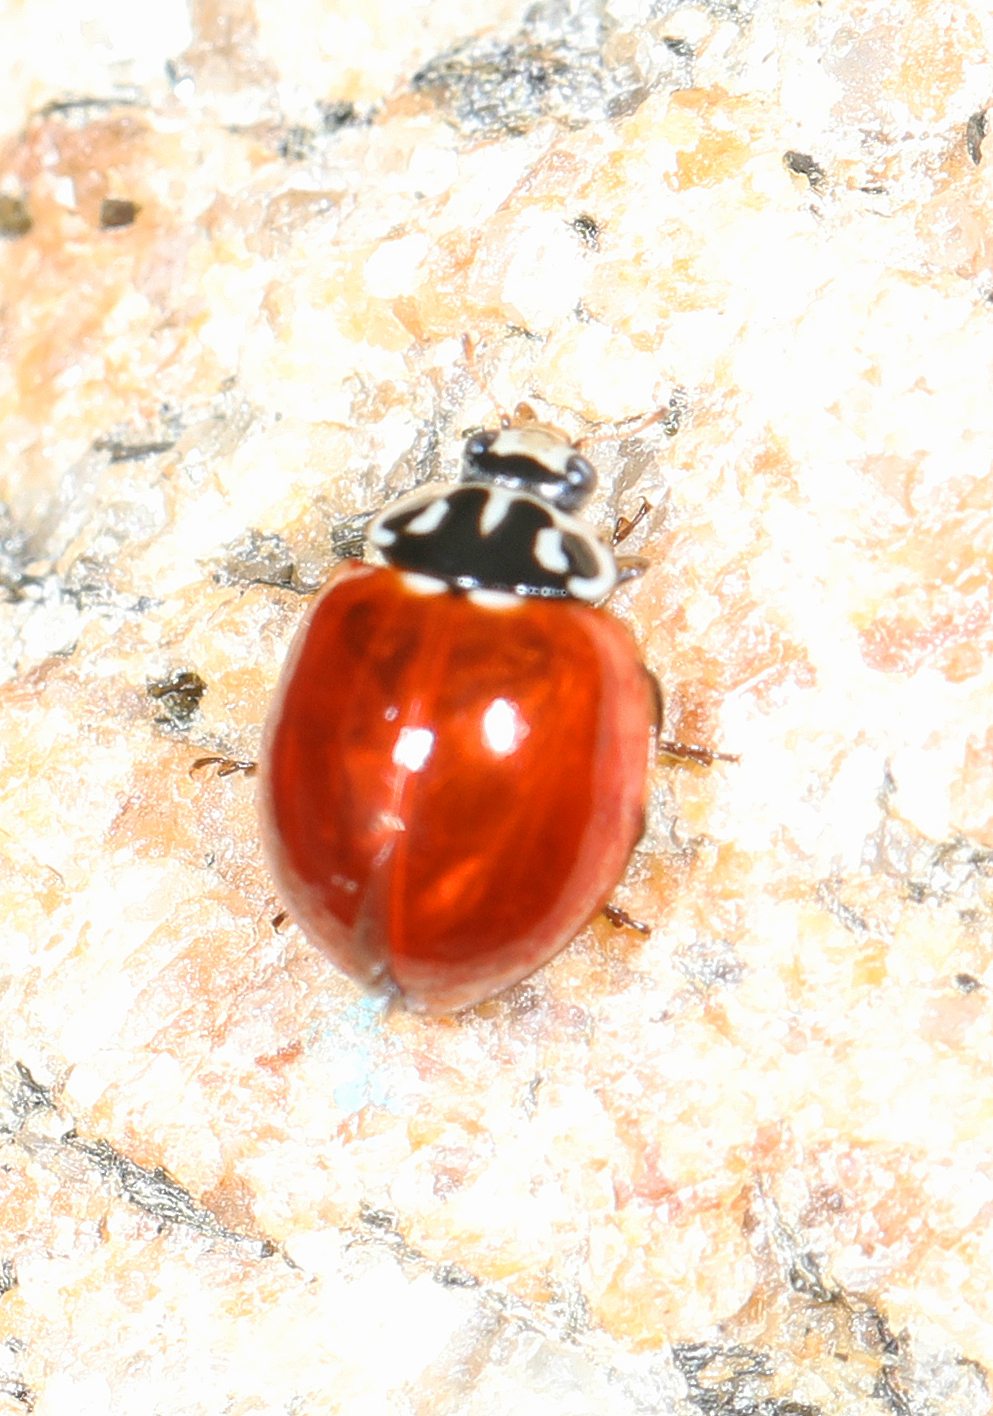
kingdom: Animalia
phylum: Arthropoda
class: Insecta
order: Coleoptera
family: Coccinellidae
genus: Cycloneda
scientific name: Cycloneda polita
